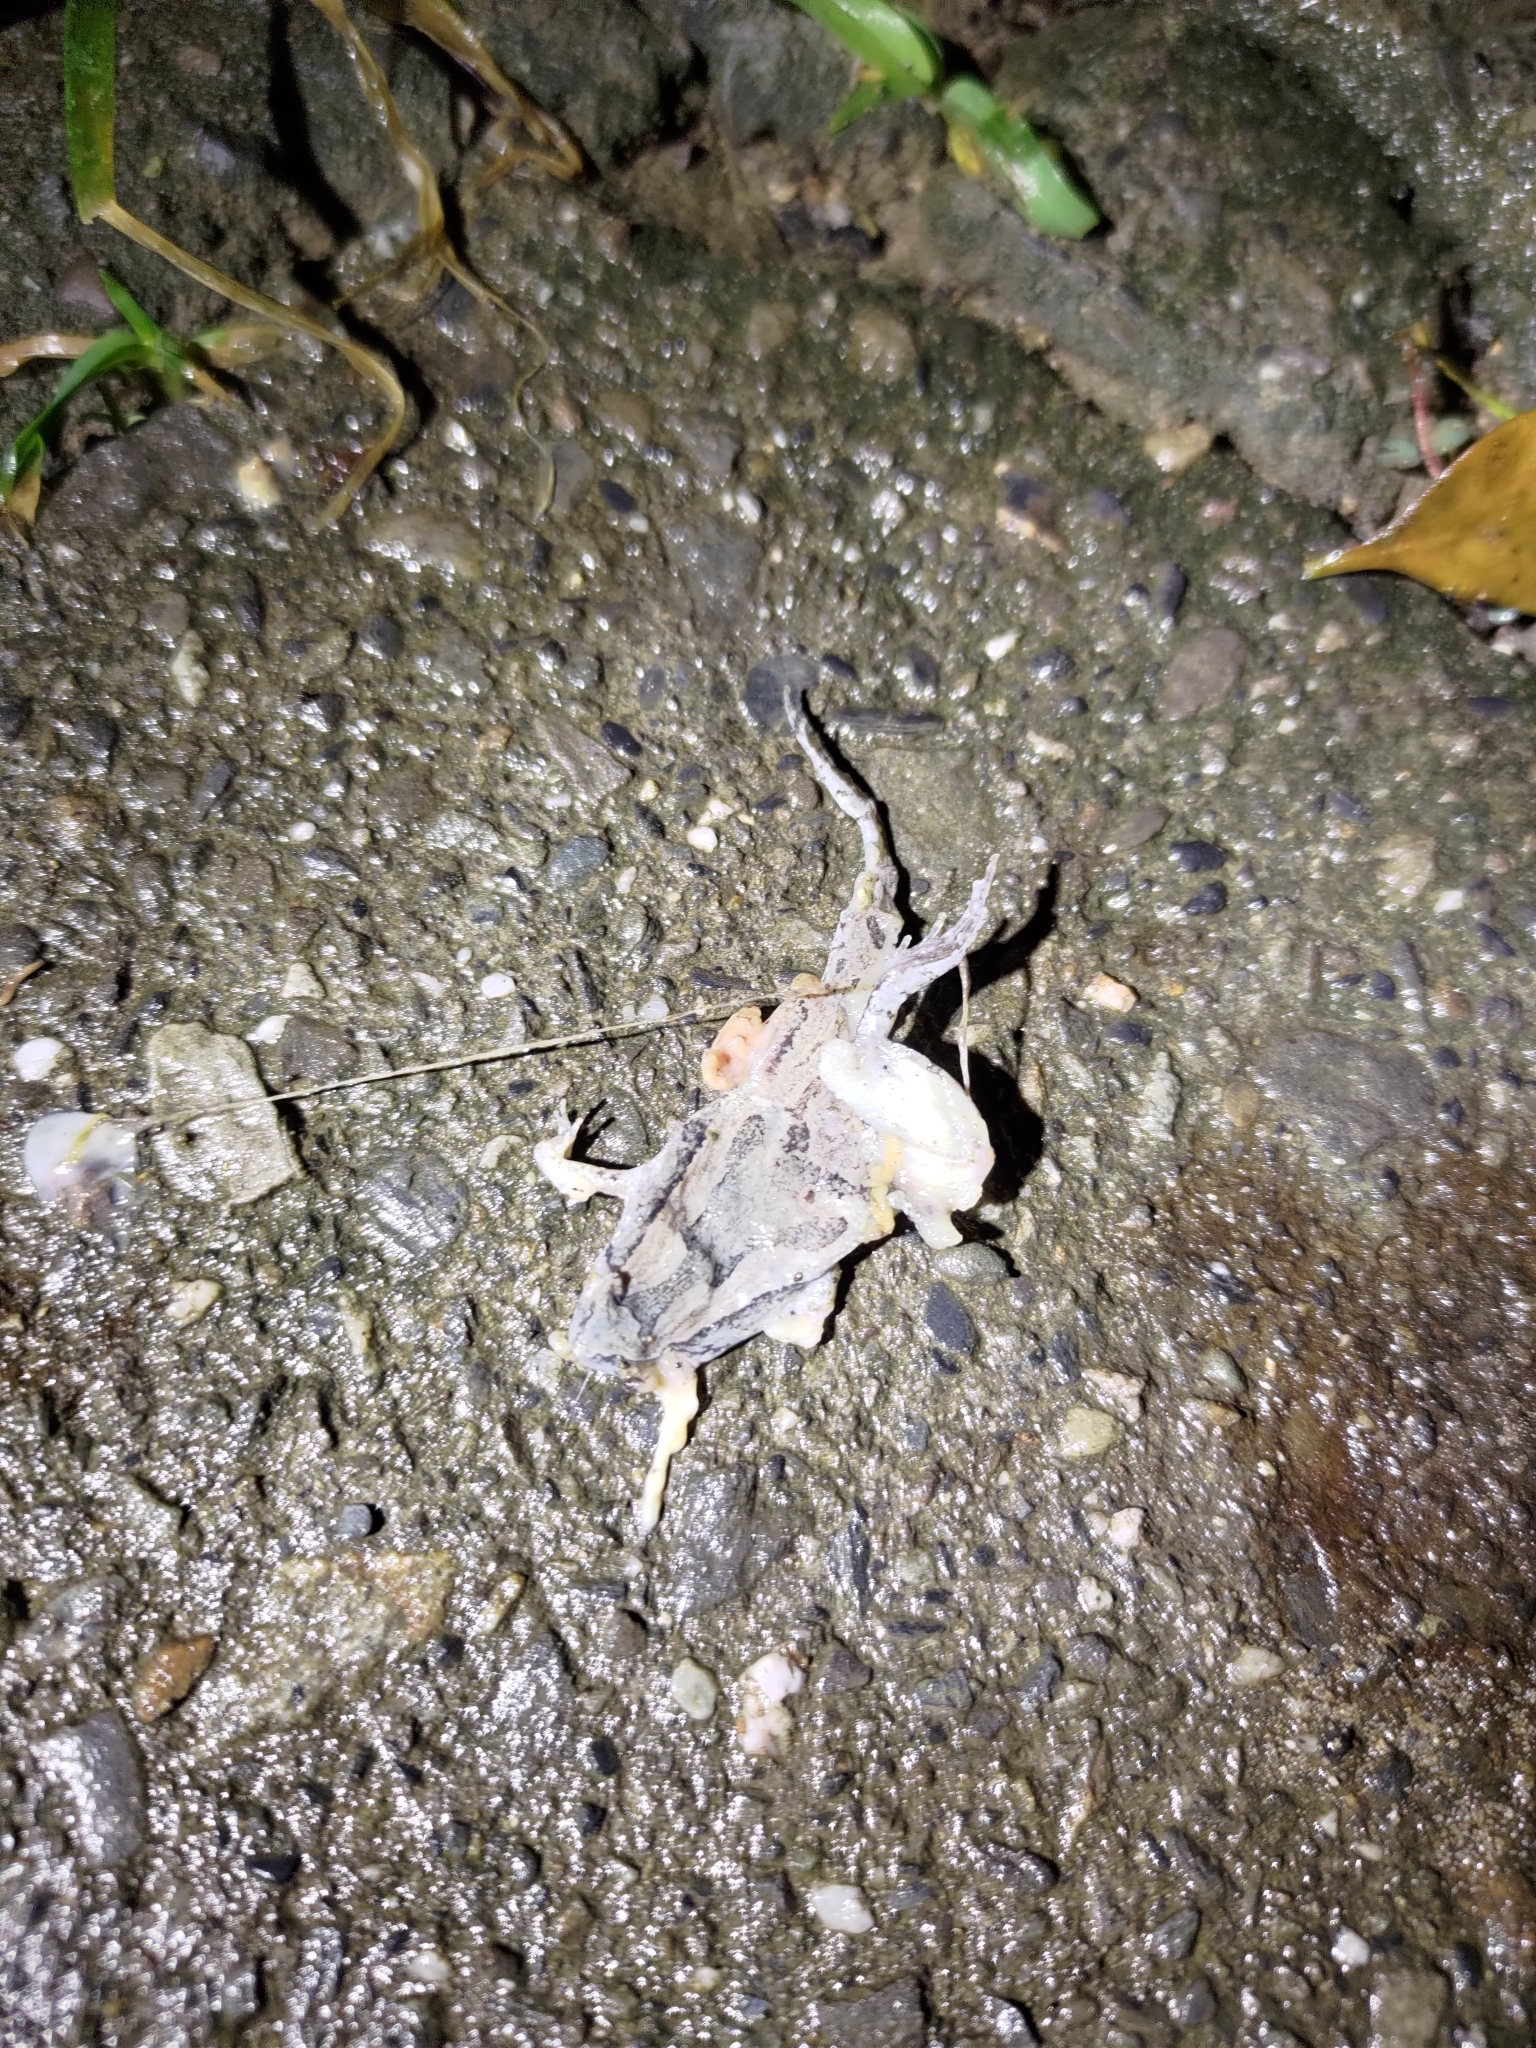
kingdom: Animalia
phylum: Chordata
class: Amphibia
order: Anura
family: Microhylidae
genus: Microhyla
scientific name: Microhyla fissipes
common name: Ornate narrow-mouthed frog
